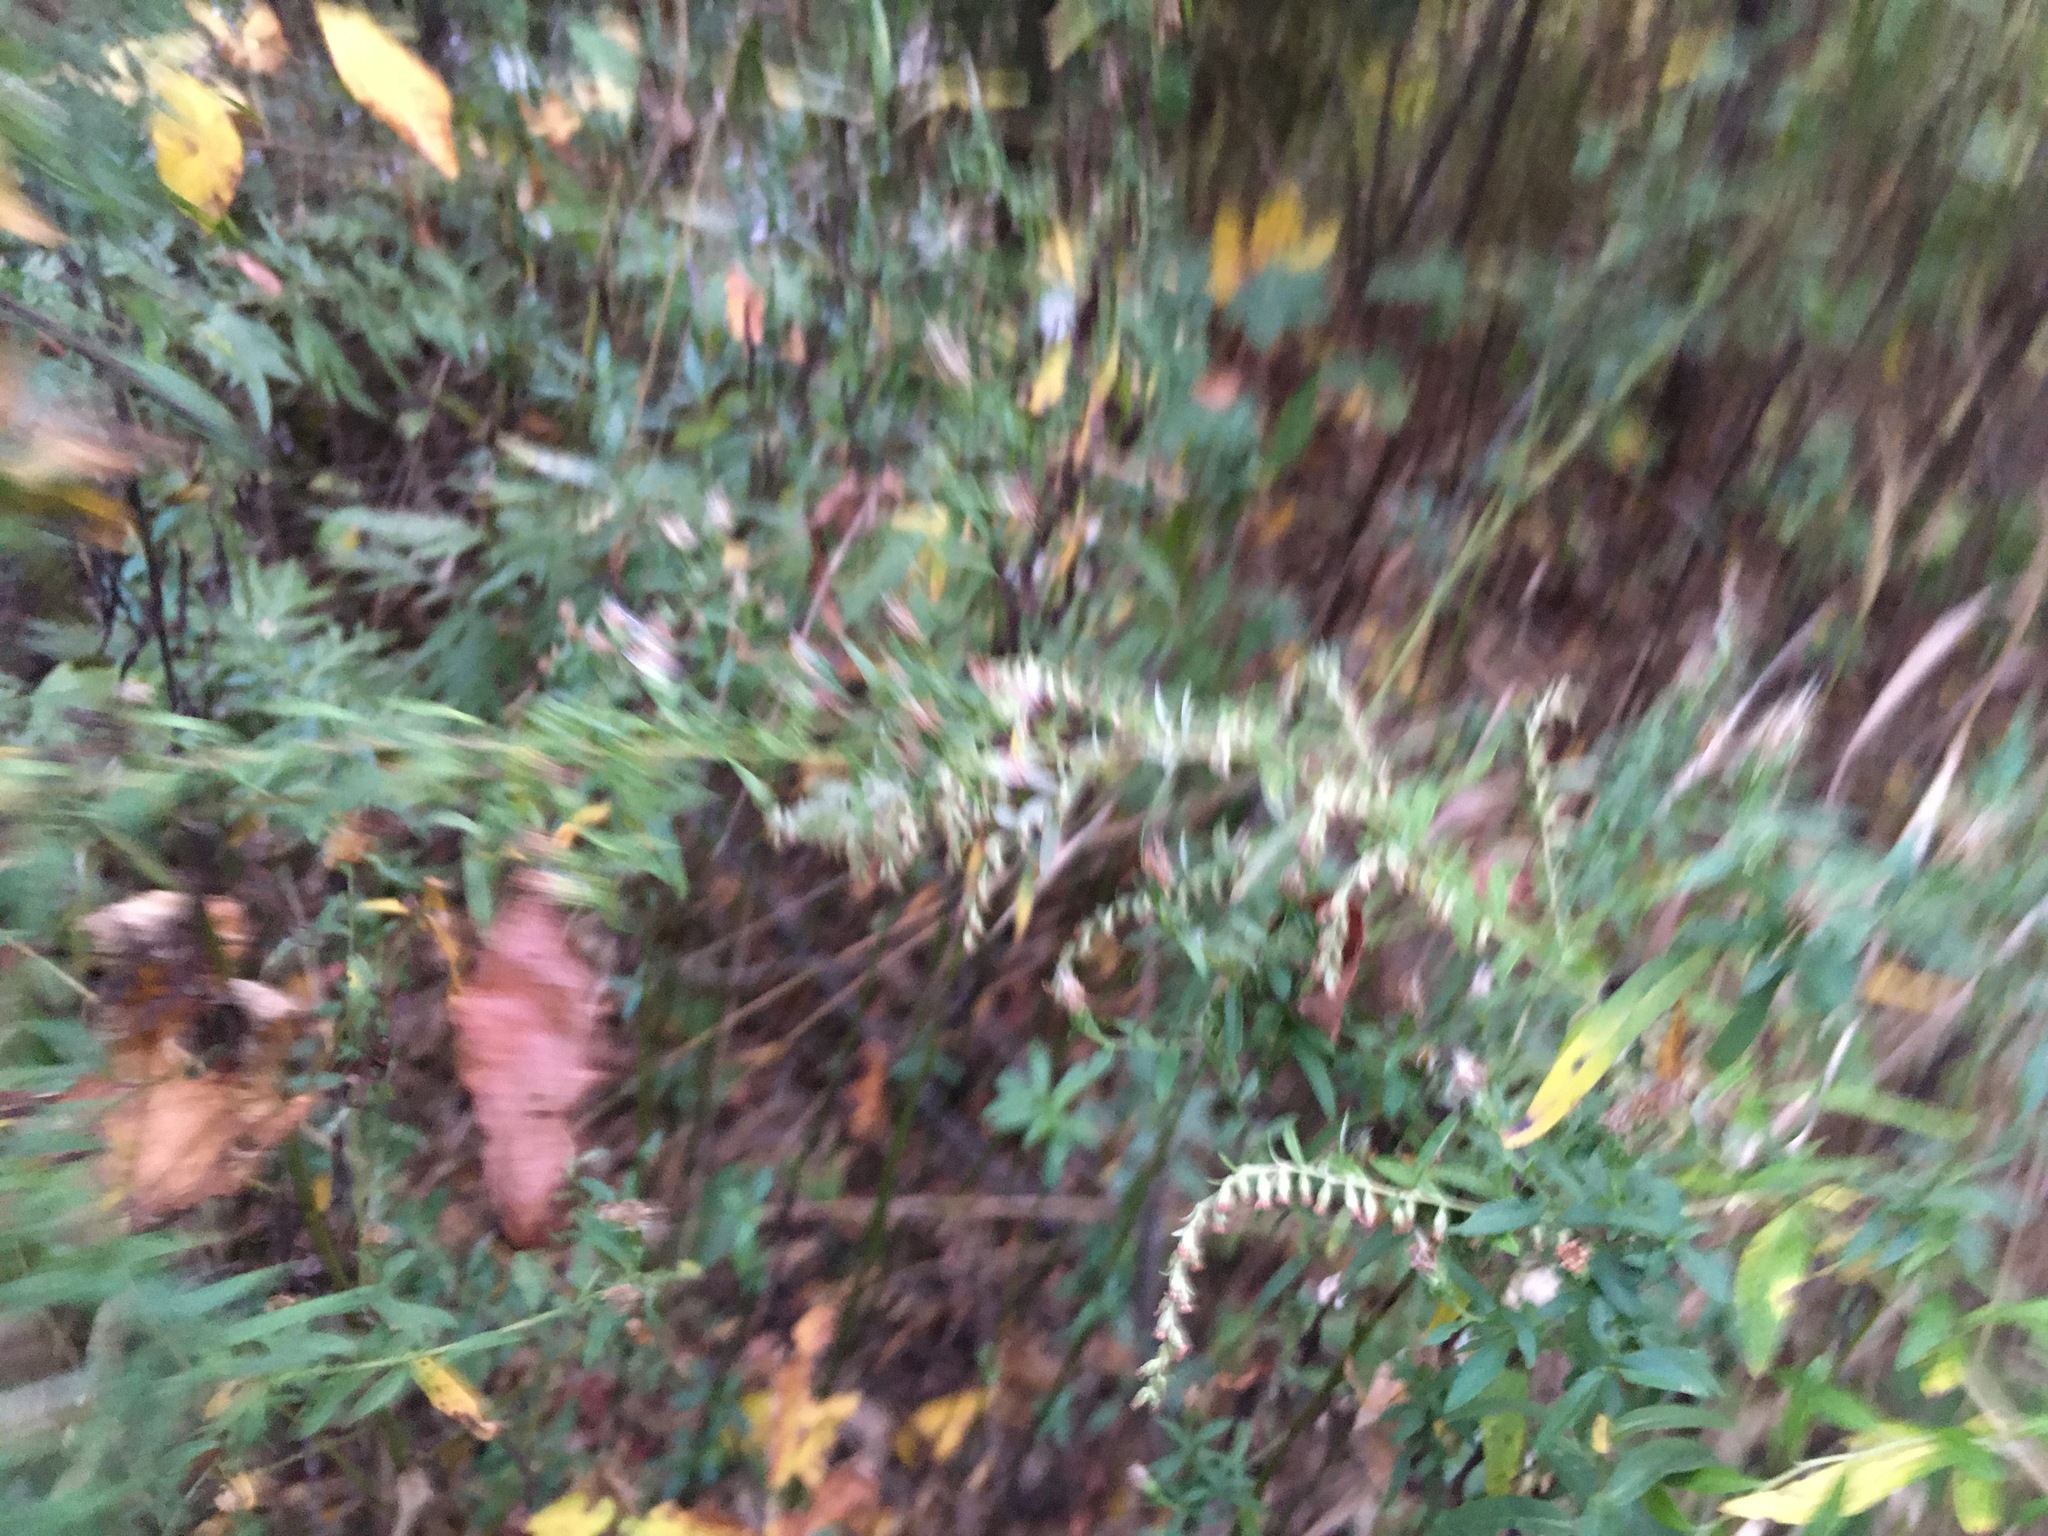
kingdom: Plantae
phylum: Tracheophyta
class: Magnoliopsida
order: Asterales
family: Asteraceae
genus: Artemisia
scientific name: Artemisia vulgaris
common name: Mugwort
